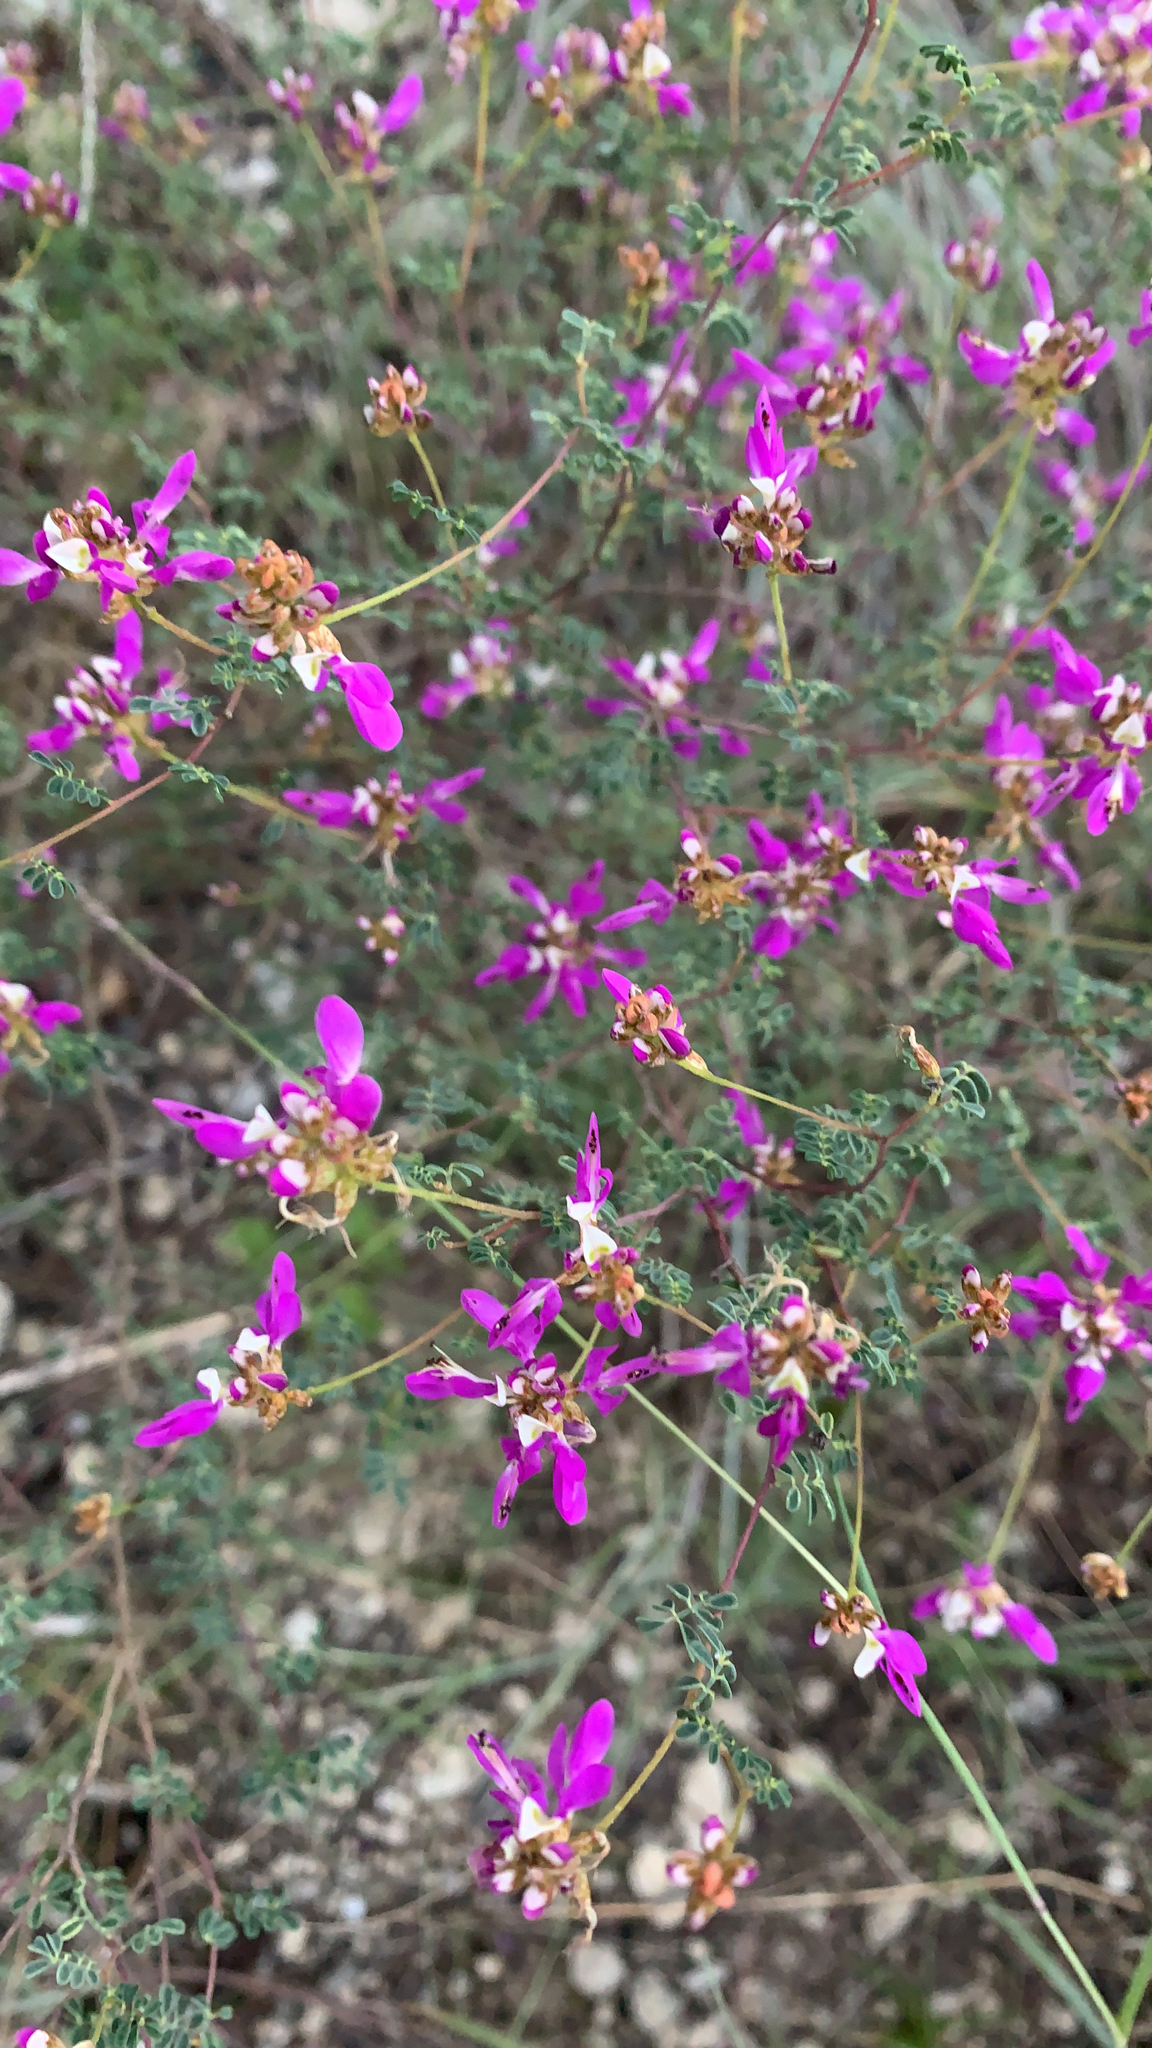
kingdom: Plantae
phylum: Tracheophyta
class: Magnoliopsida
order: Fabales
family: Fabaceae
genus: Dalea
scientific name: Dalea frutescens
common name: Black dalea
